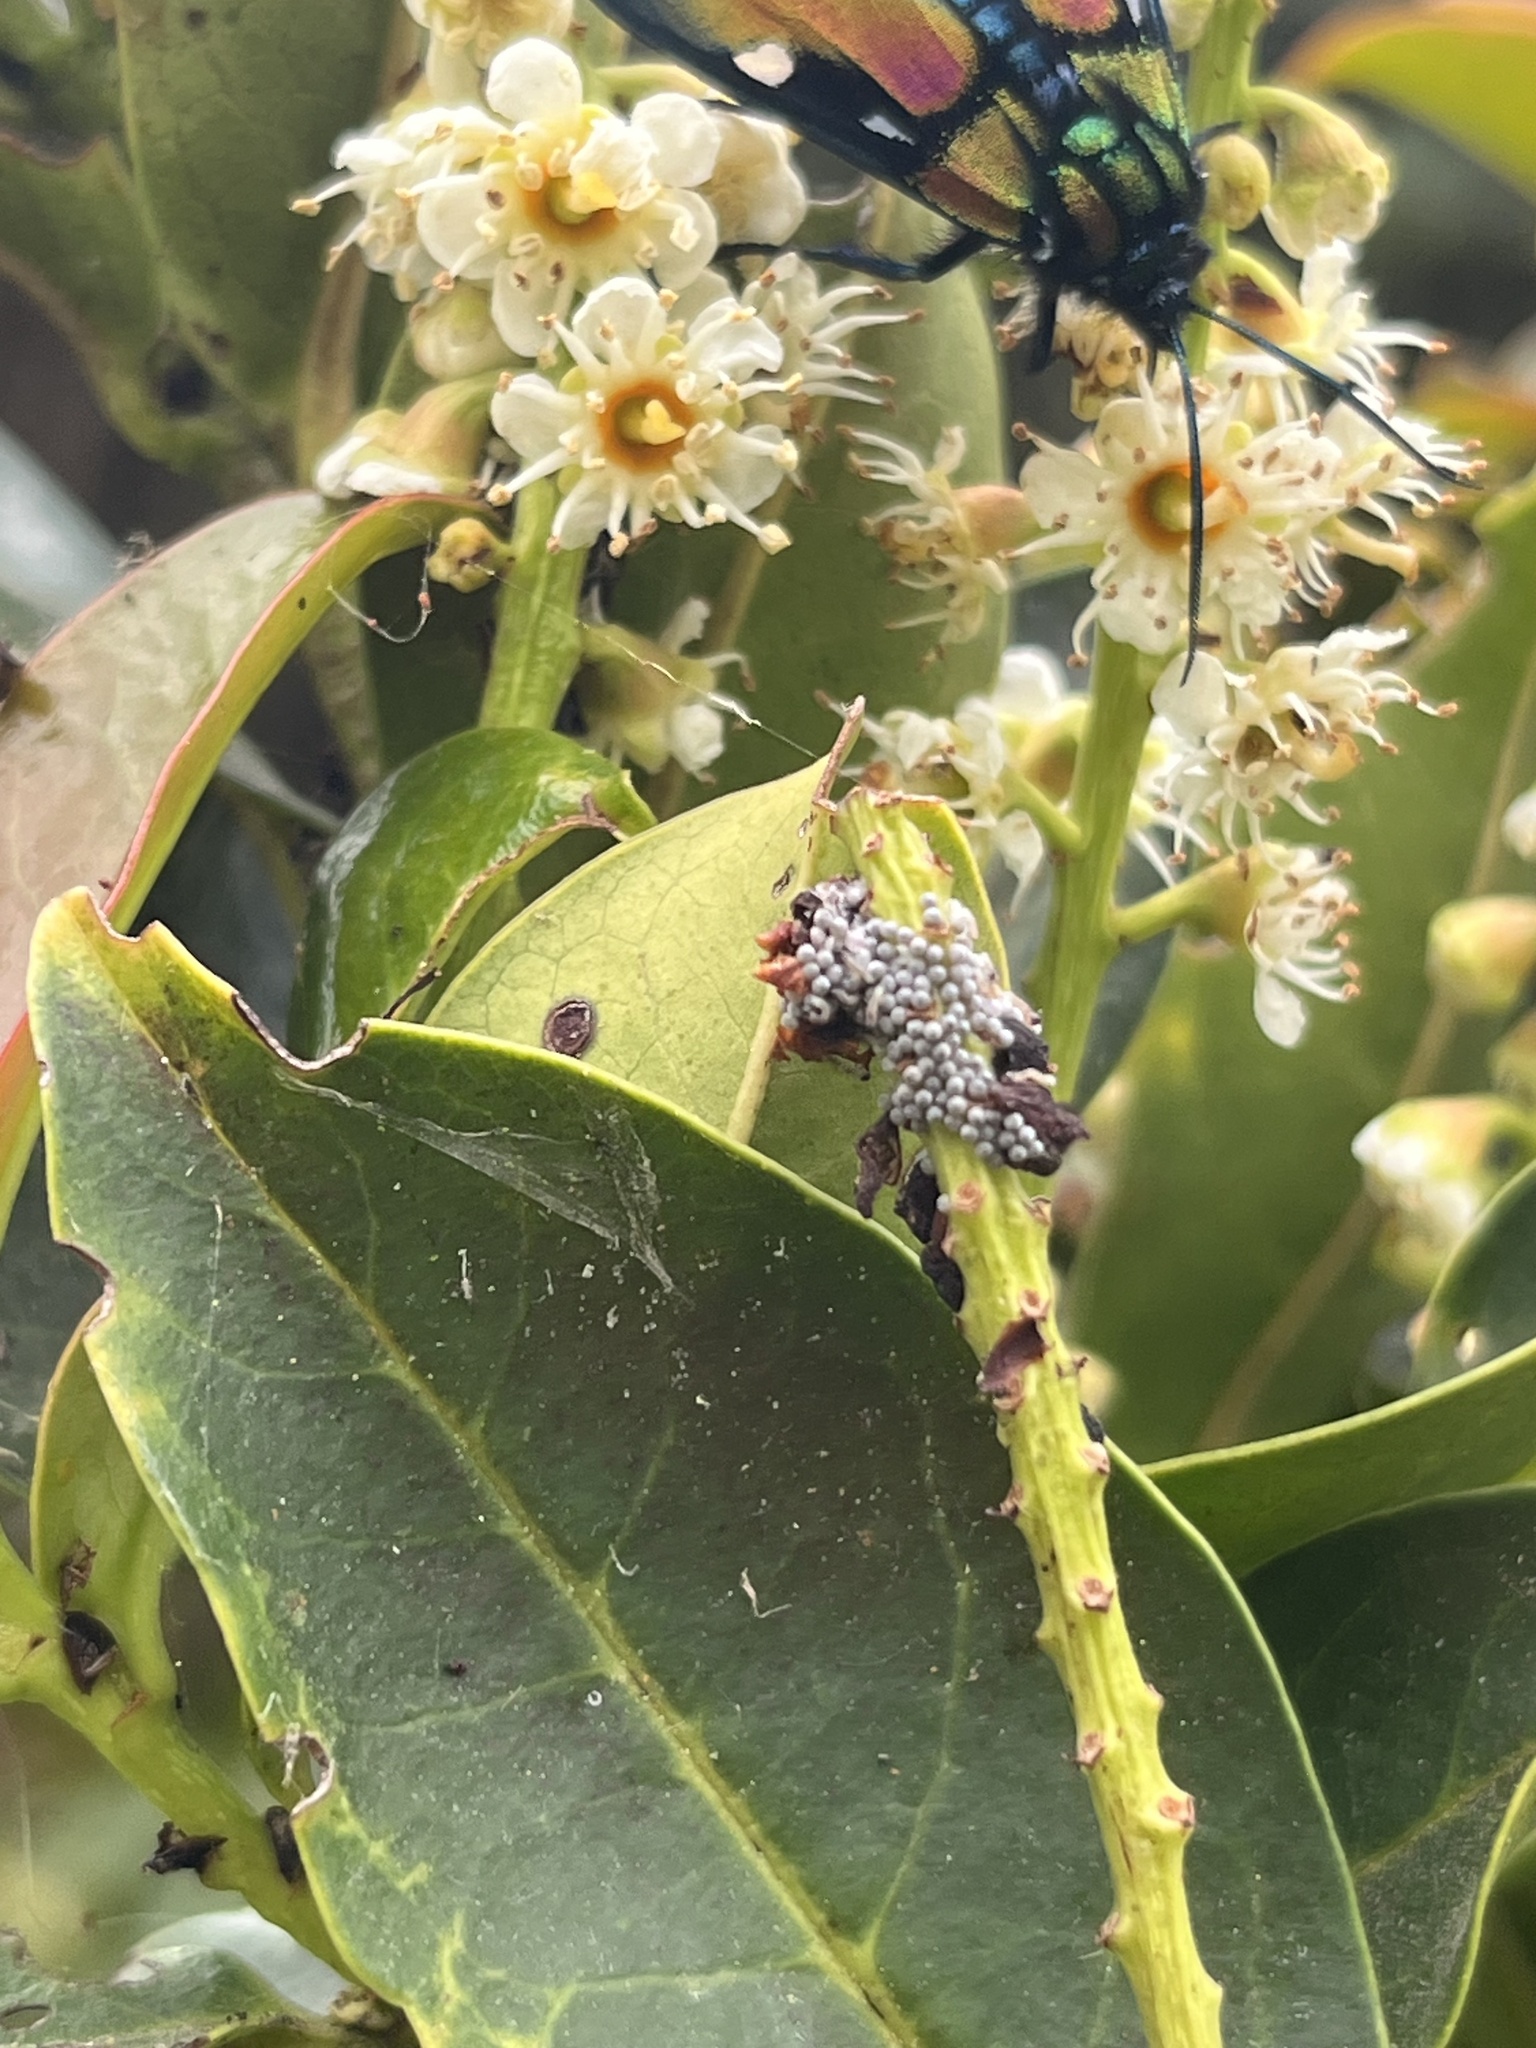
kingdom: Plantae
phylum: Tracheophyta
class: Magnoliopsida
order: Rosales
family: Rosaceae
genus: Prunus
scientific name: Prunus buxifolia
